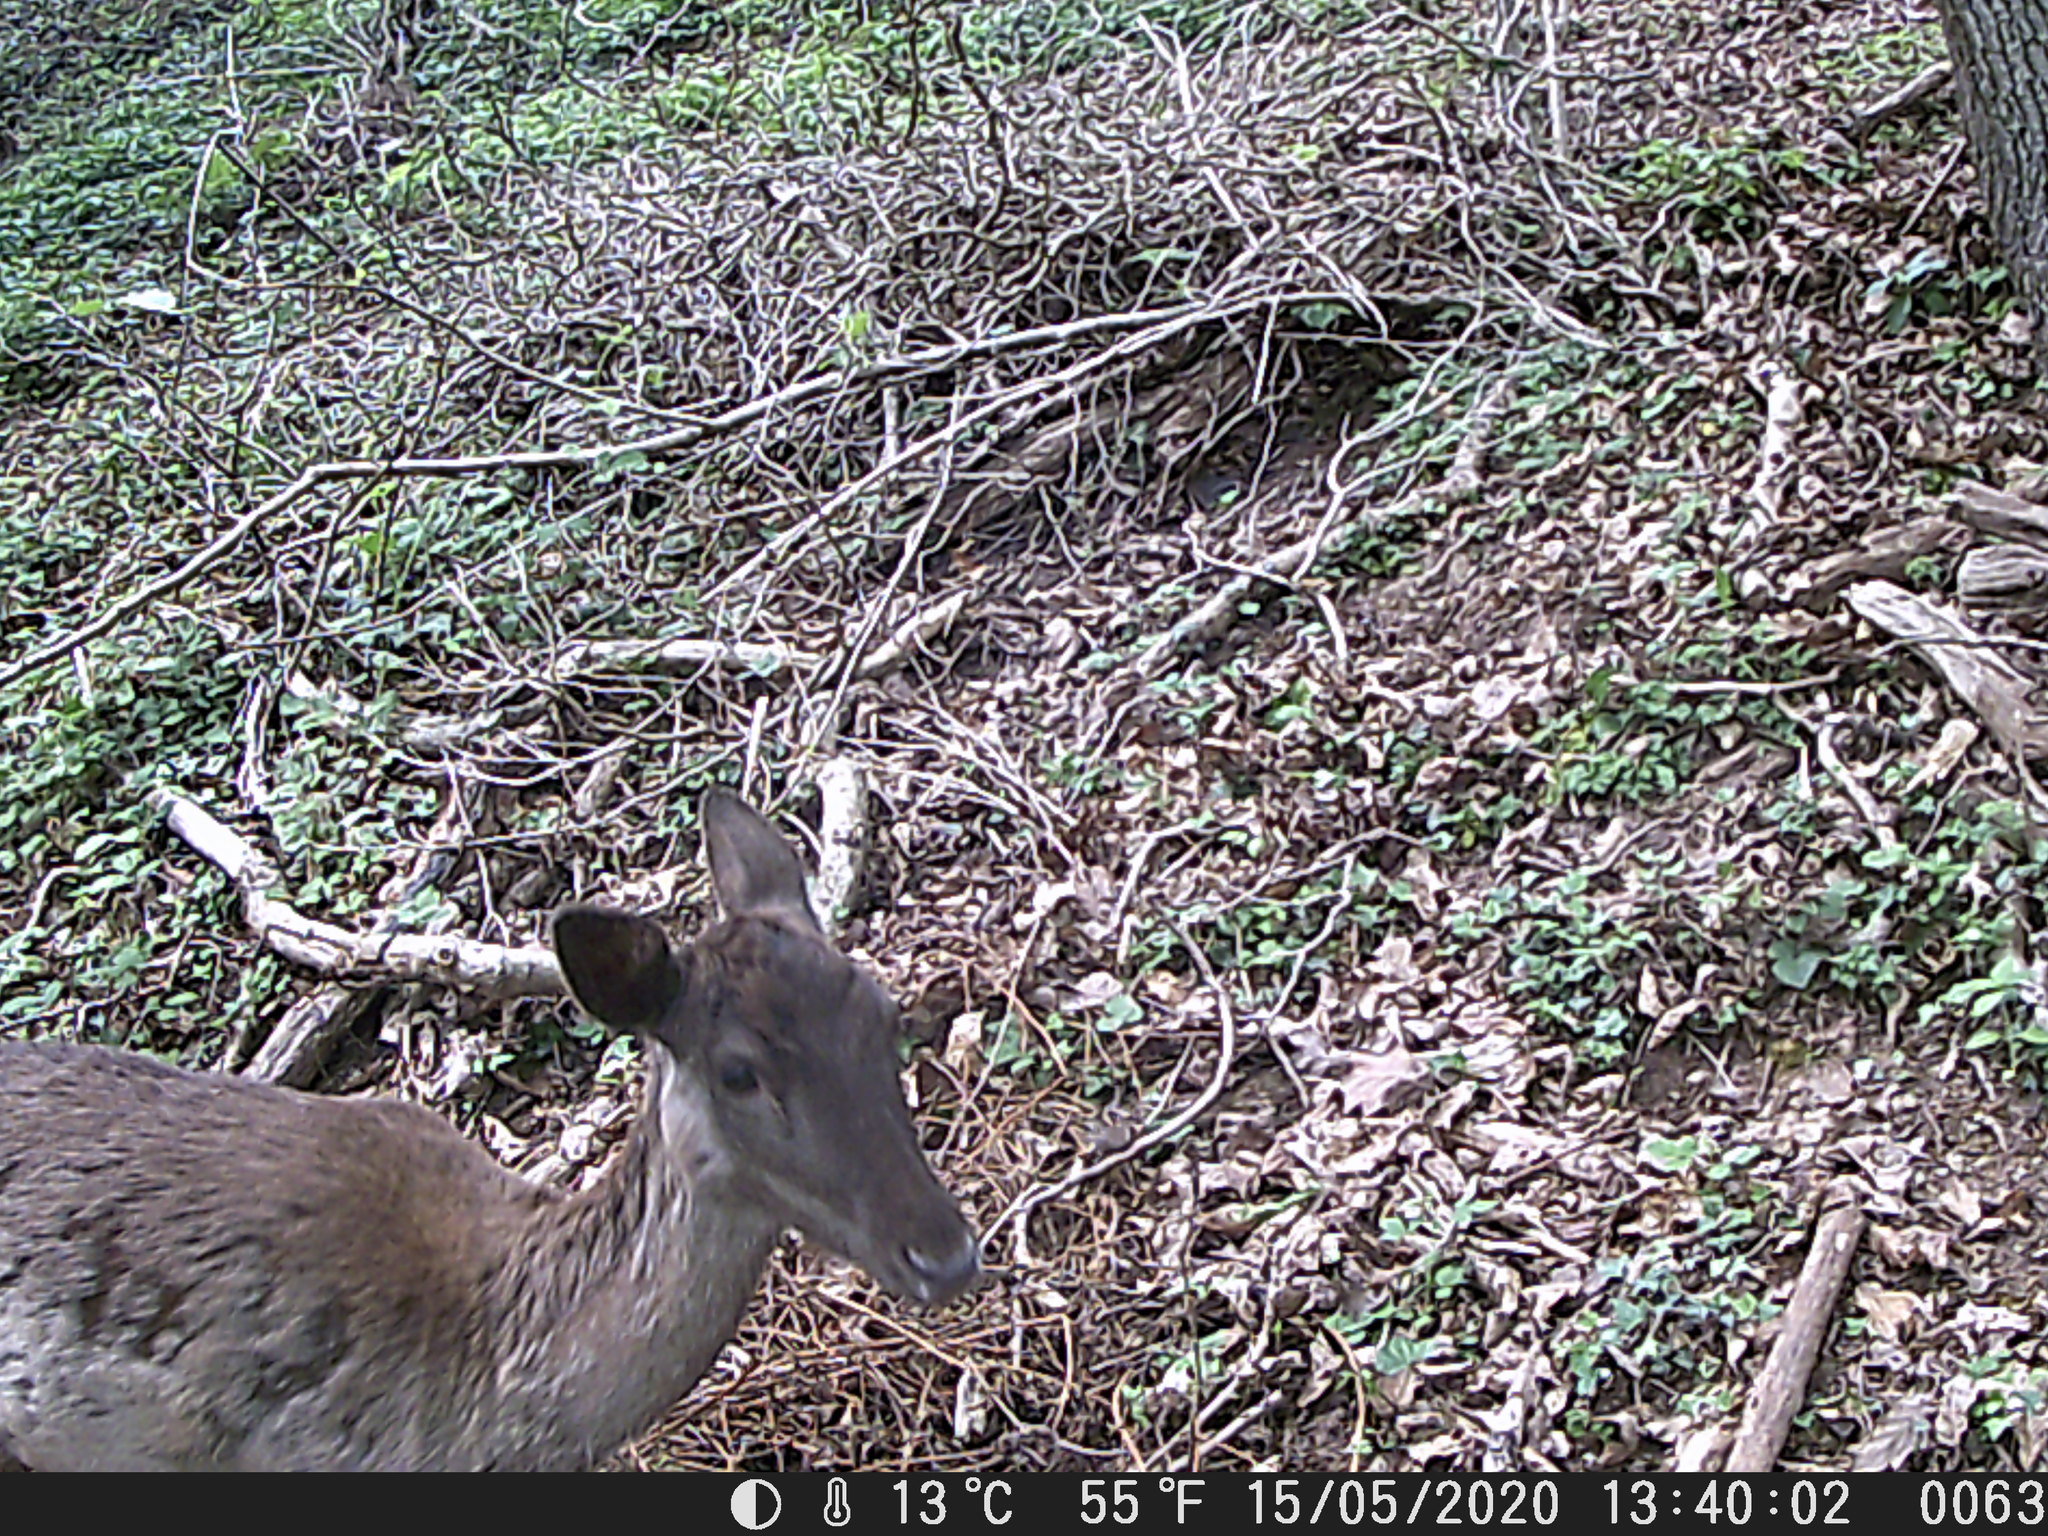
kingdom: Animalia
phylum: Chordata
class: Mammalia
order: Artiodactyla
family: Cervidae
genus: Dama
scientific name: Dama dama
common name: Fallow deer
